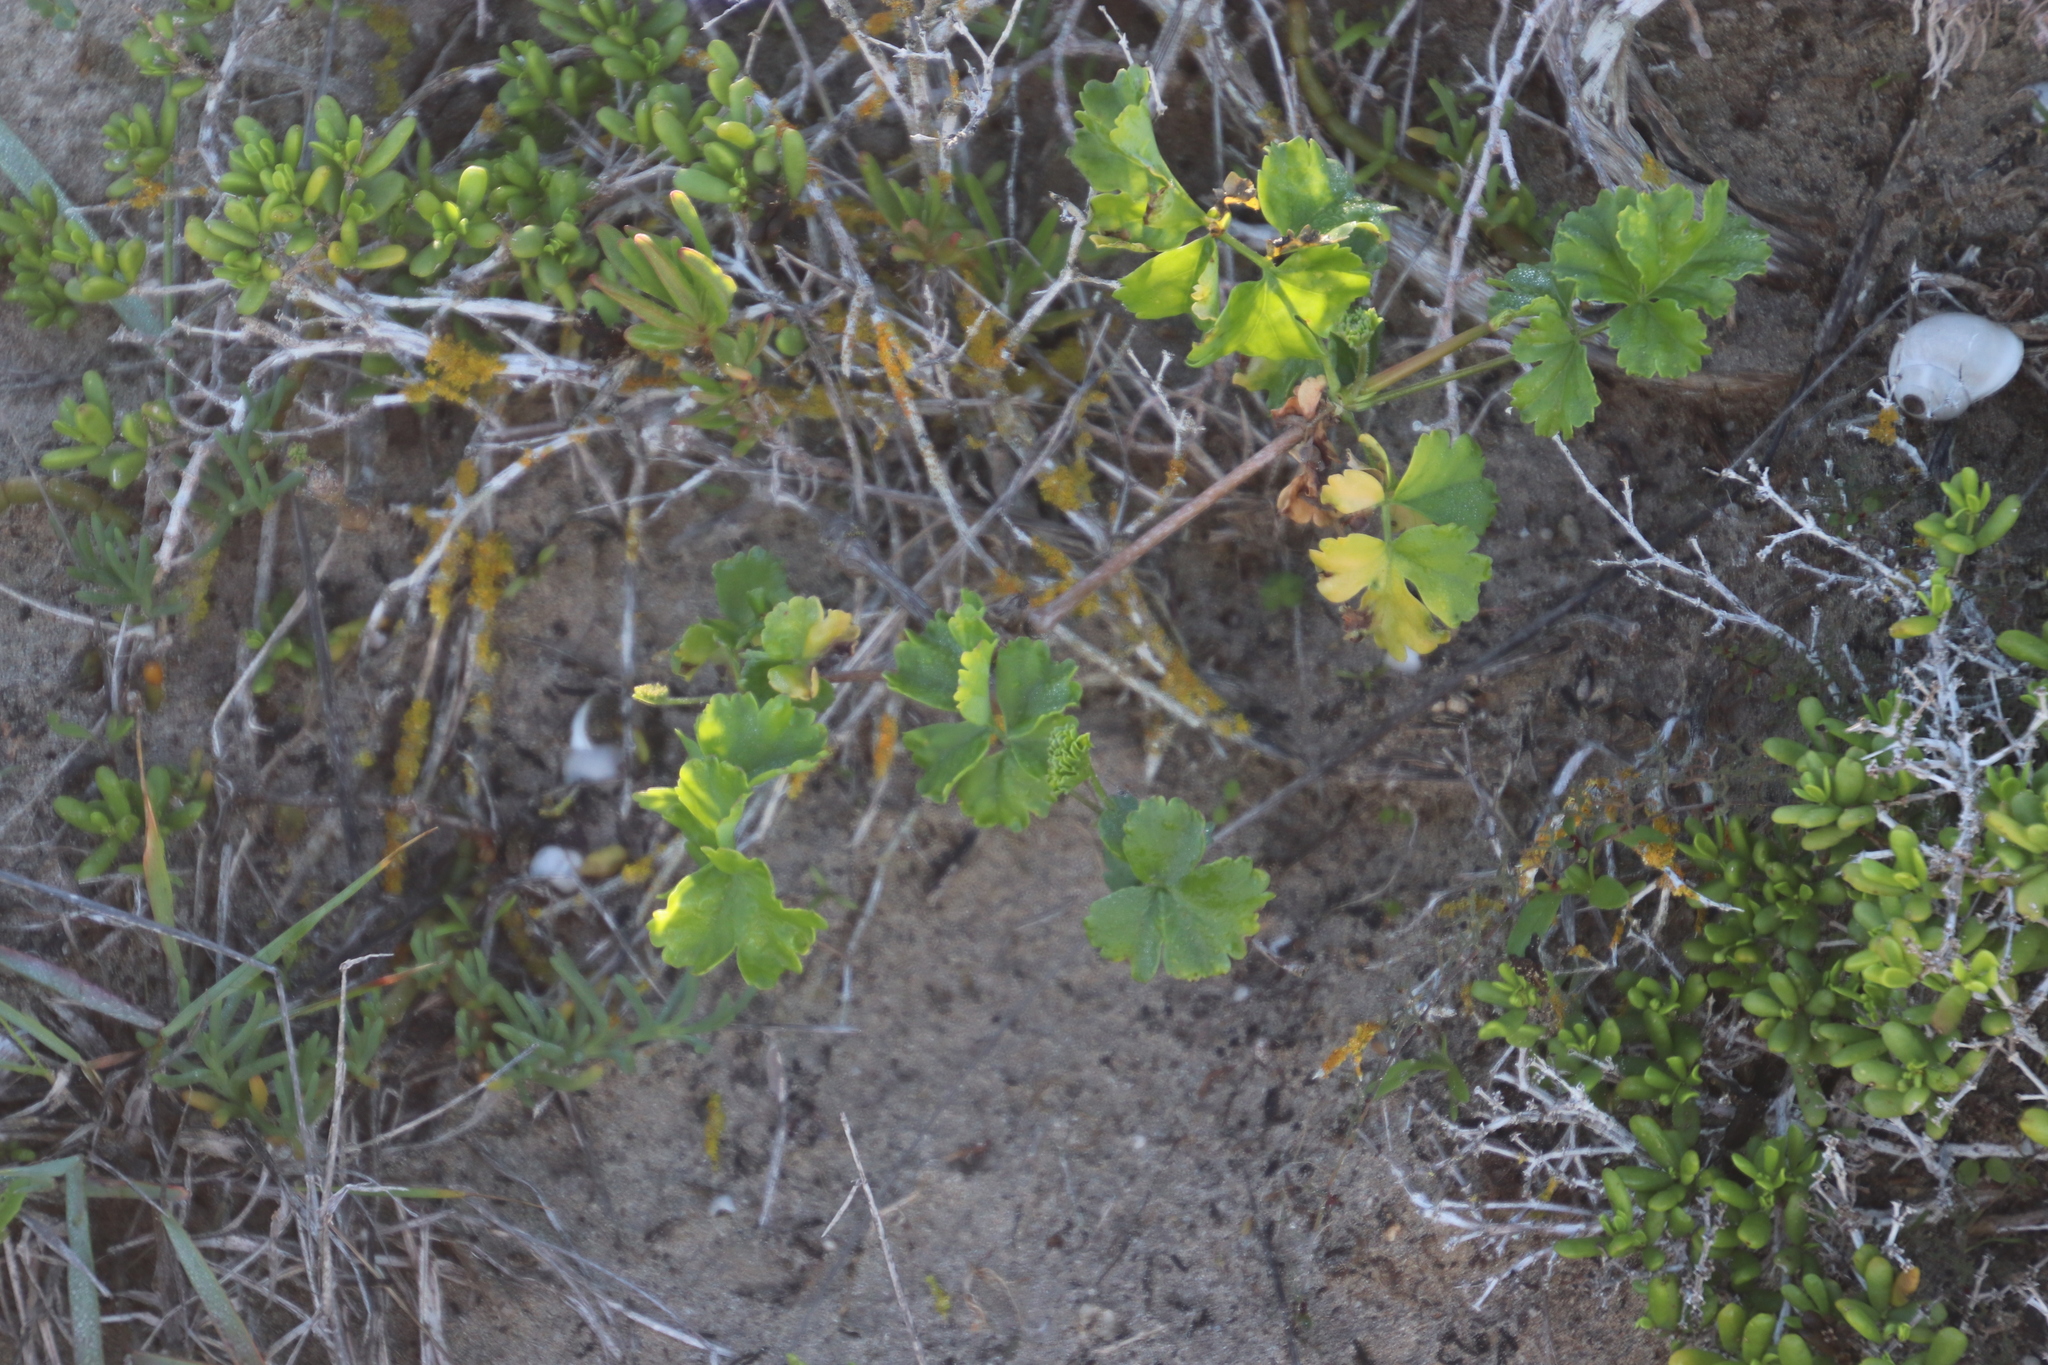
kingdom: Plantae
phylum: Tracheophyta
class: Magnoliopsida
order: Geraniales
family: Geraniaceae
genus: Pelargonium
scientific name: Pelargonium gibbosum
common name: Gouty geranium
